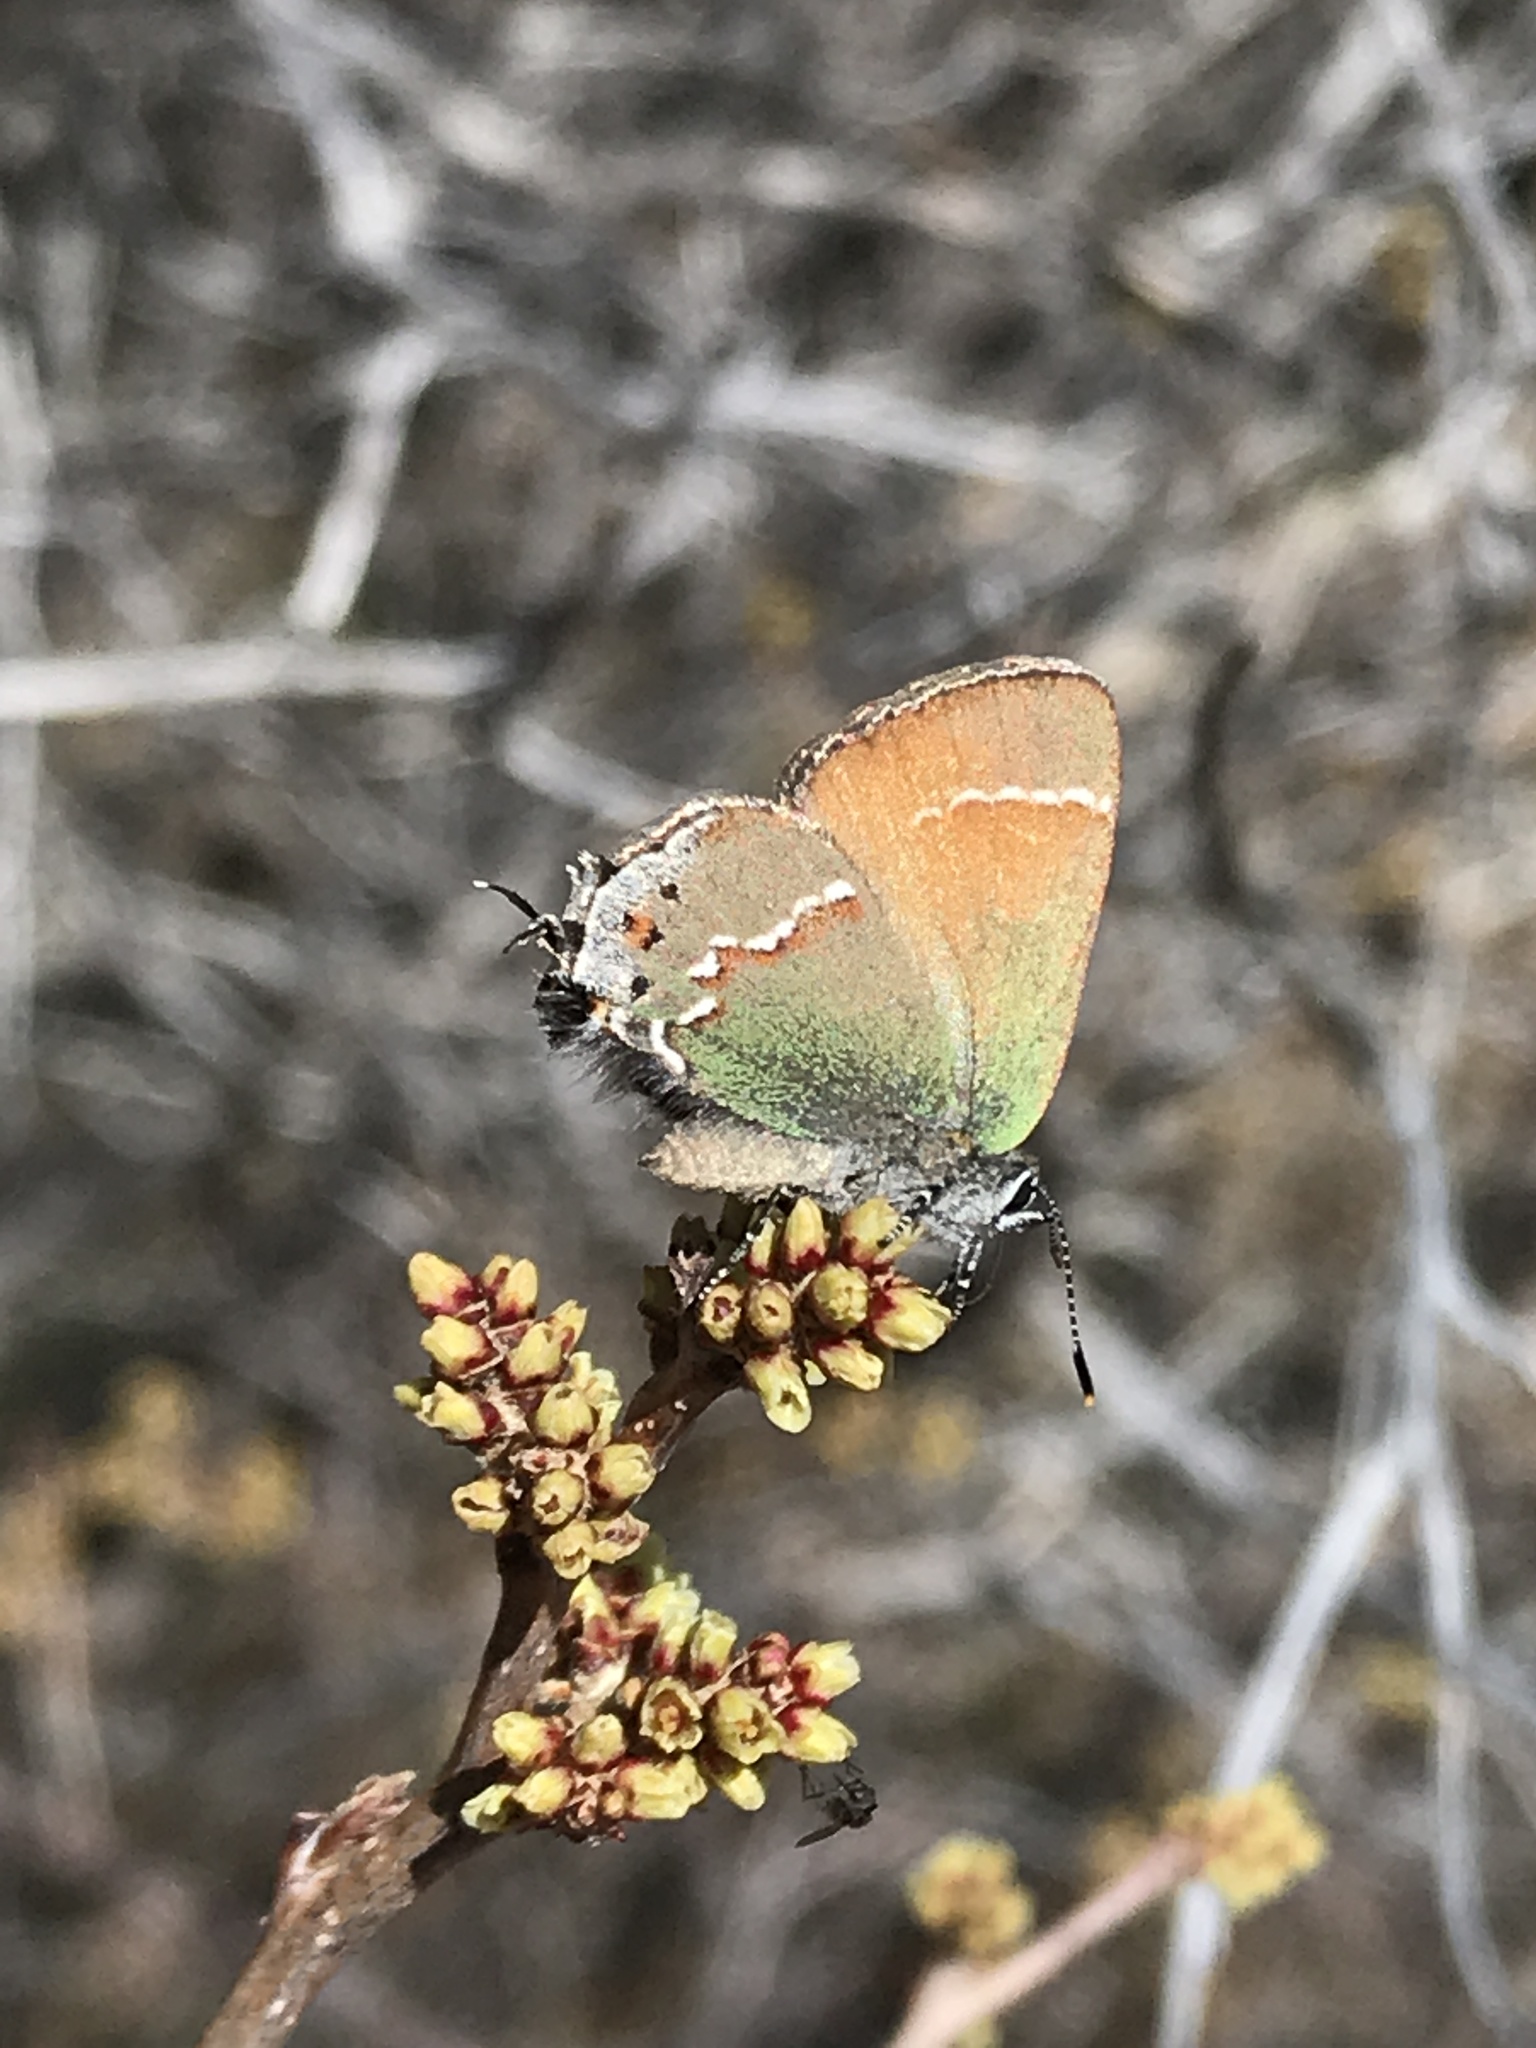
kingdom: Animalia
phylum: Arthropoda
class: Insecta
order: Lepidoptera
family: Lycaenidae
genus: Mitoura
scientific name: Mitoura siva
